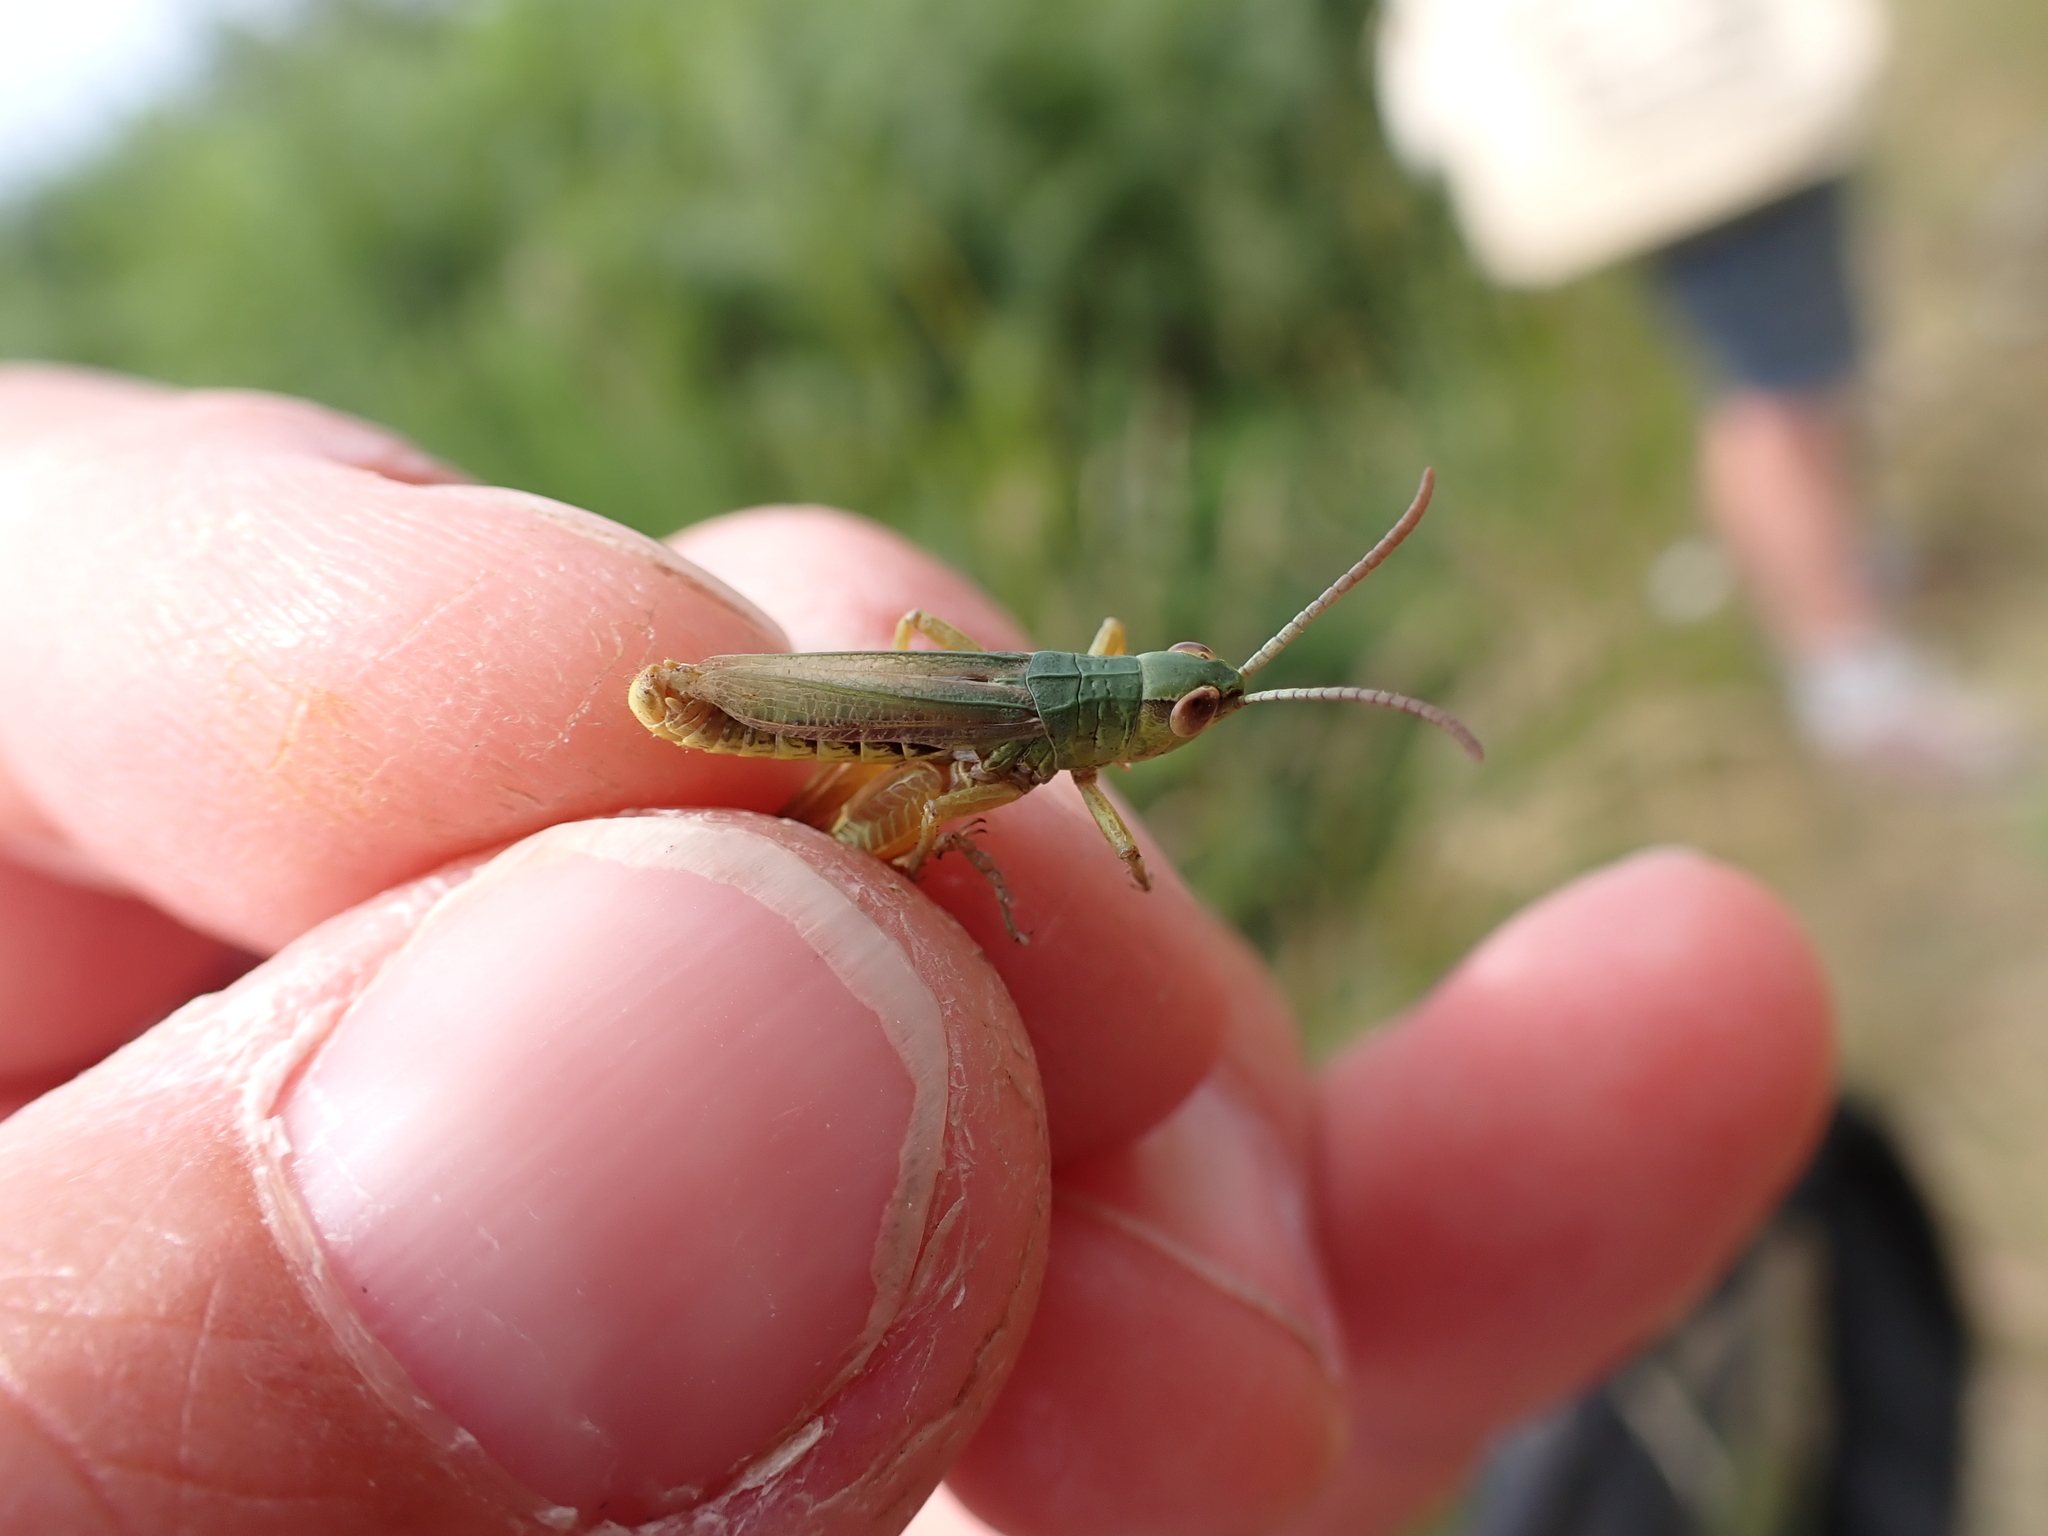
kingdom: Animalia
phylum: Arthropoda
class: Insecta
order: Orthoptera
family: Acrididae
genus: Pseudochorthippus
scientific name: Pseudochorthippus parallelus
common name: Meadow grasshopper
